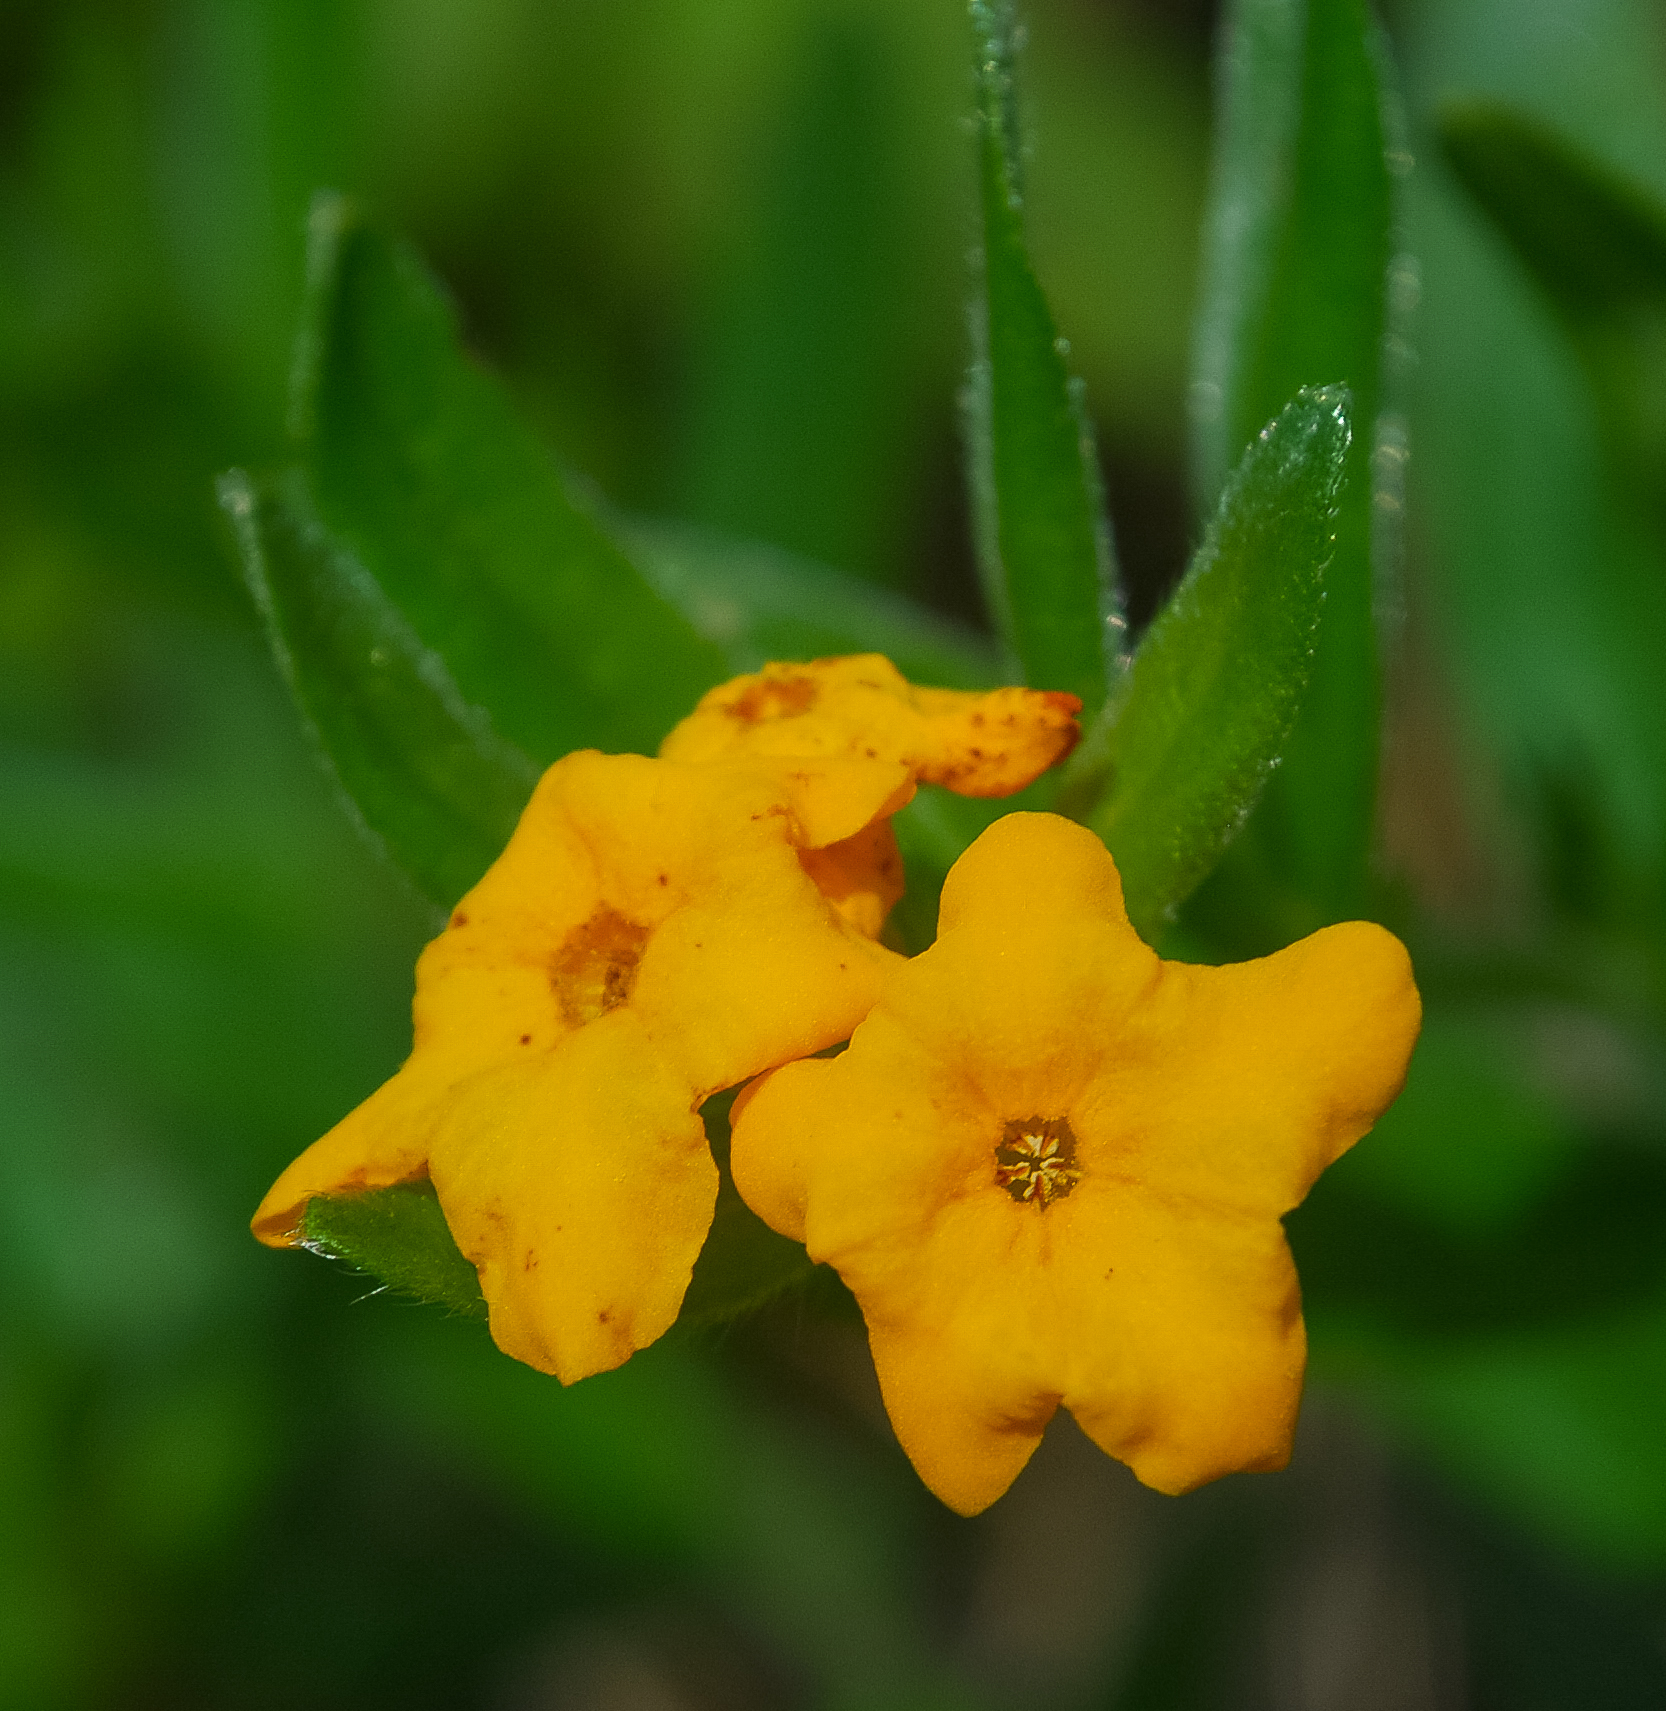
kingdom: Plantae
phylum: Tracheophyta
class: Magnoliopsida
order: Boraginales
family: Boraginaceae
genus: Lithospermum
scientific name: Lithospermum canescens
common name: Hoary puccoon
